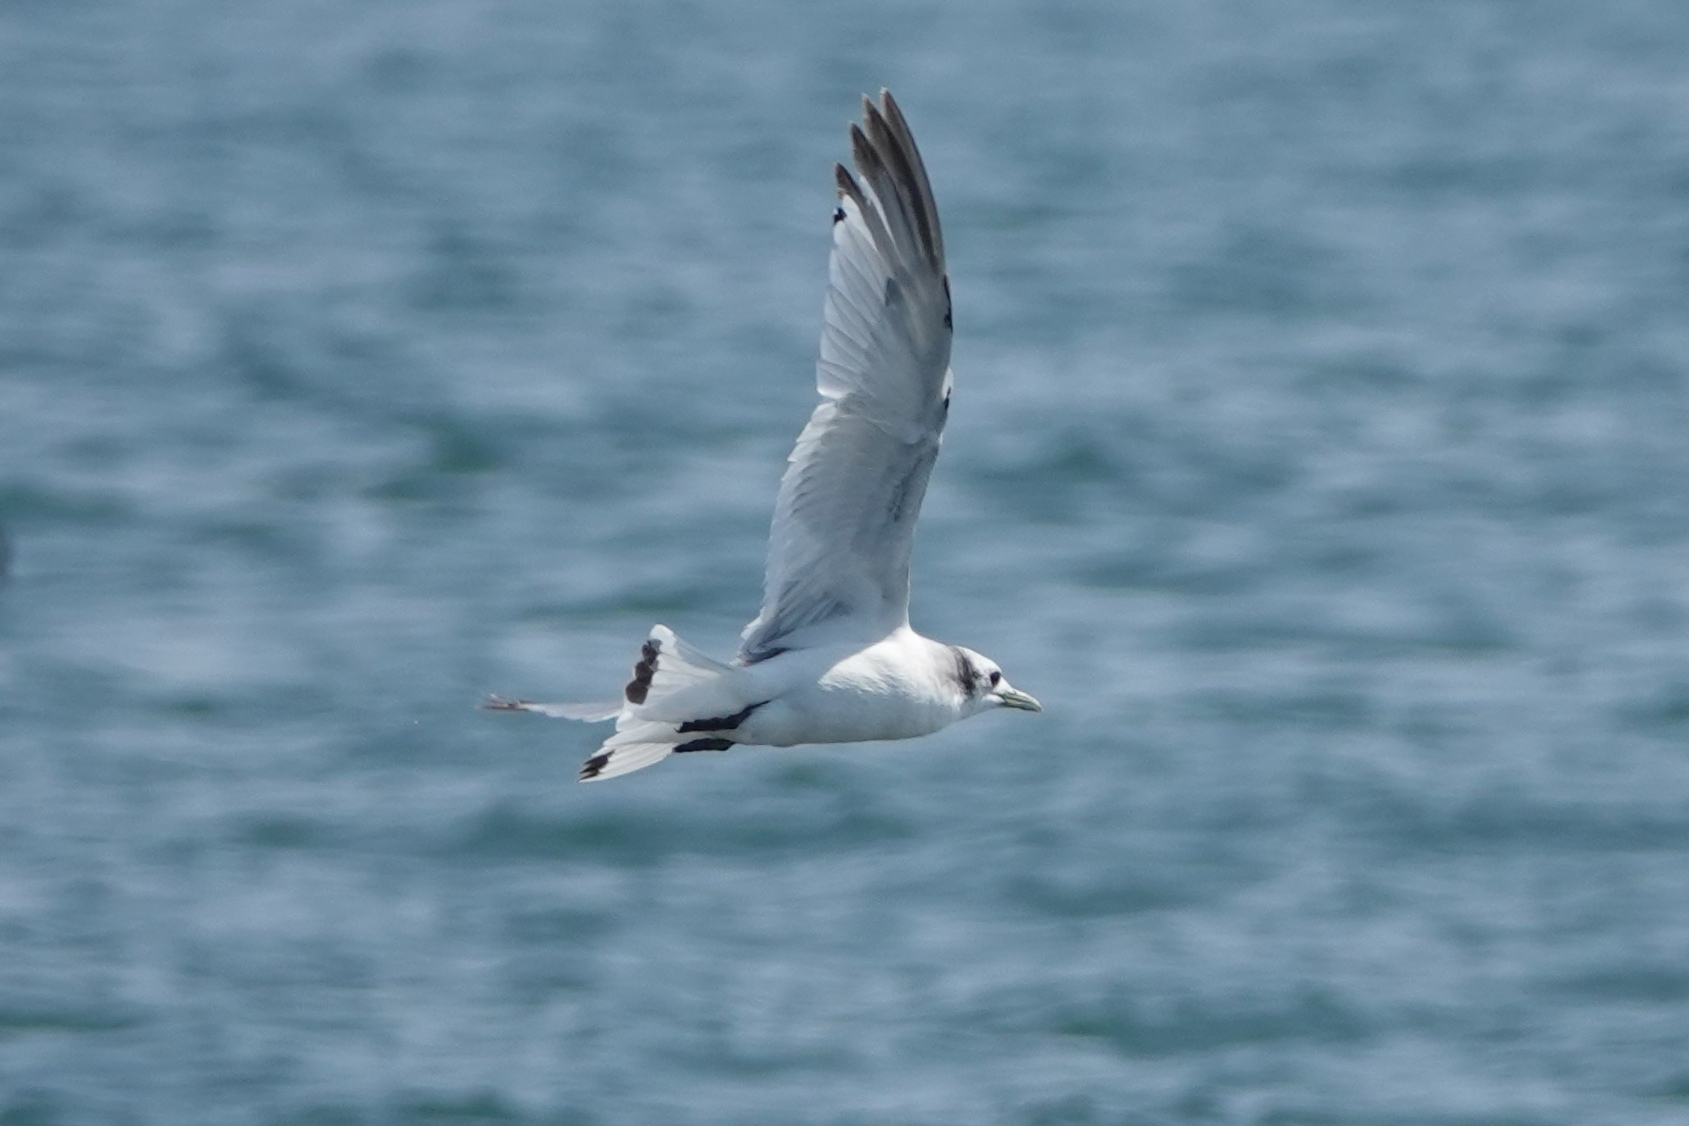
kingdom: Animalia
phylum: Chordata
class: Aves
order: Charadriiformes
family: Laridae
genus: Rissa
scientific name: Rissa tridactyla
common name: Black-legged kittiwake
